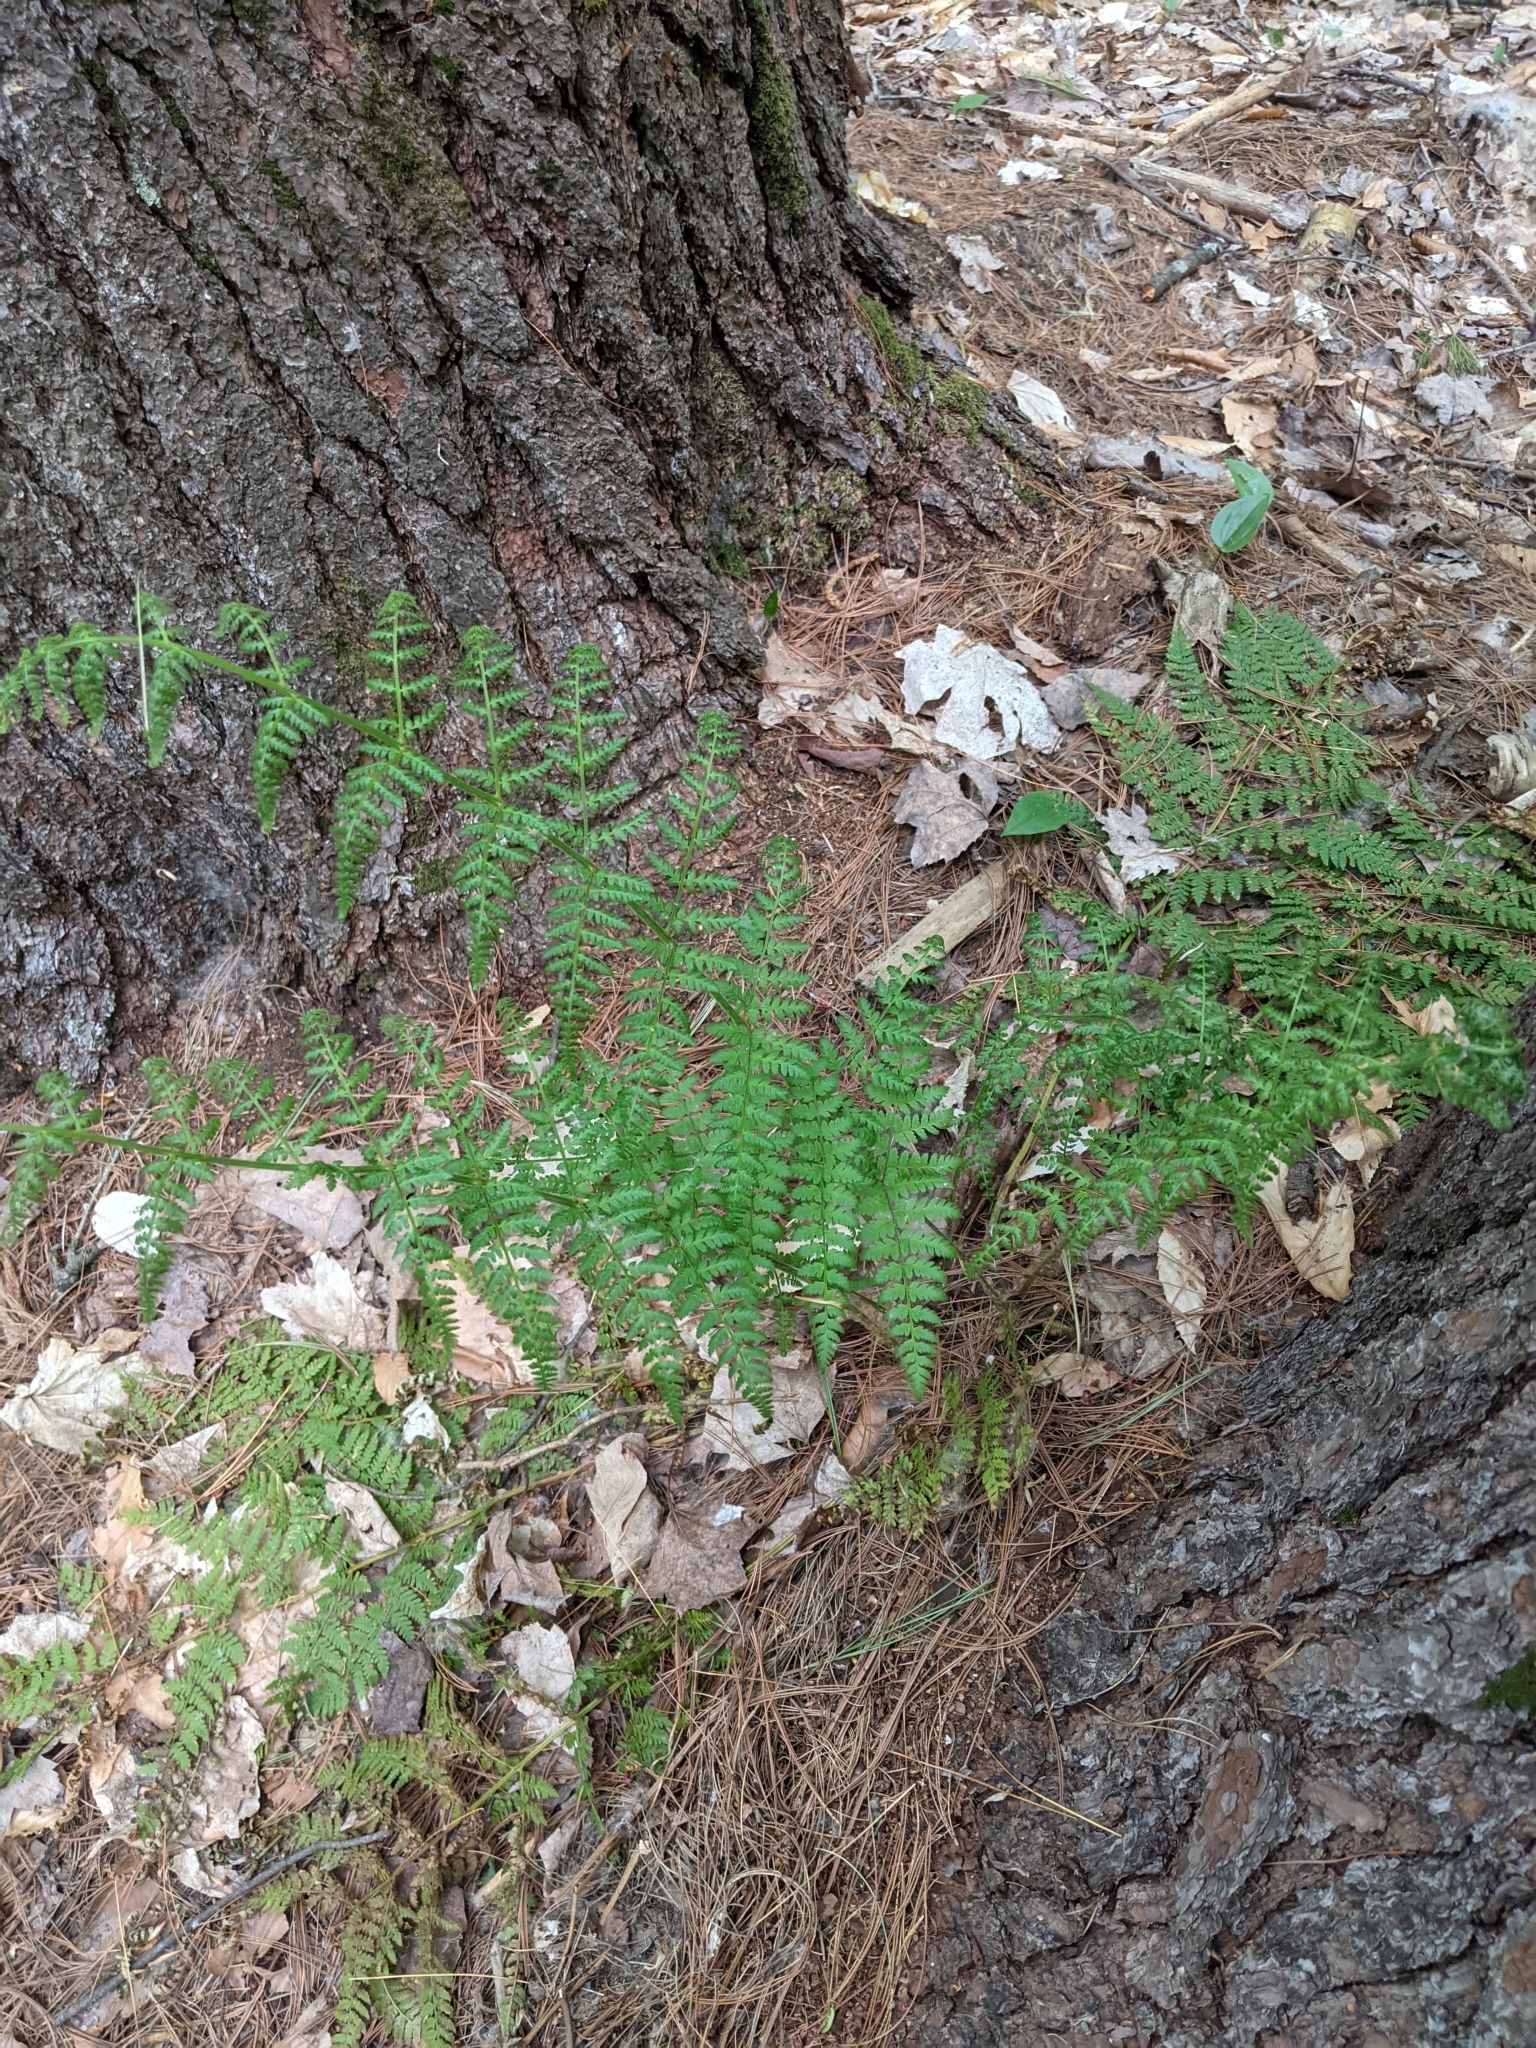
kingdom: Plantae
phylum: Tracheophyta
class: Polypodiopsida
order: Polypodiales
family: Dryopteridaceae
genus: Dryopteris
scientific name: Dryopteris intermedia
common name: Evergreen wood fern
